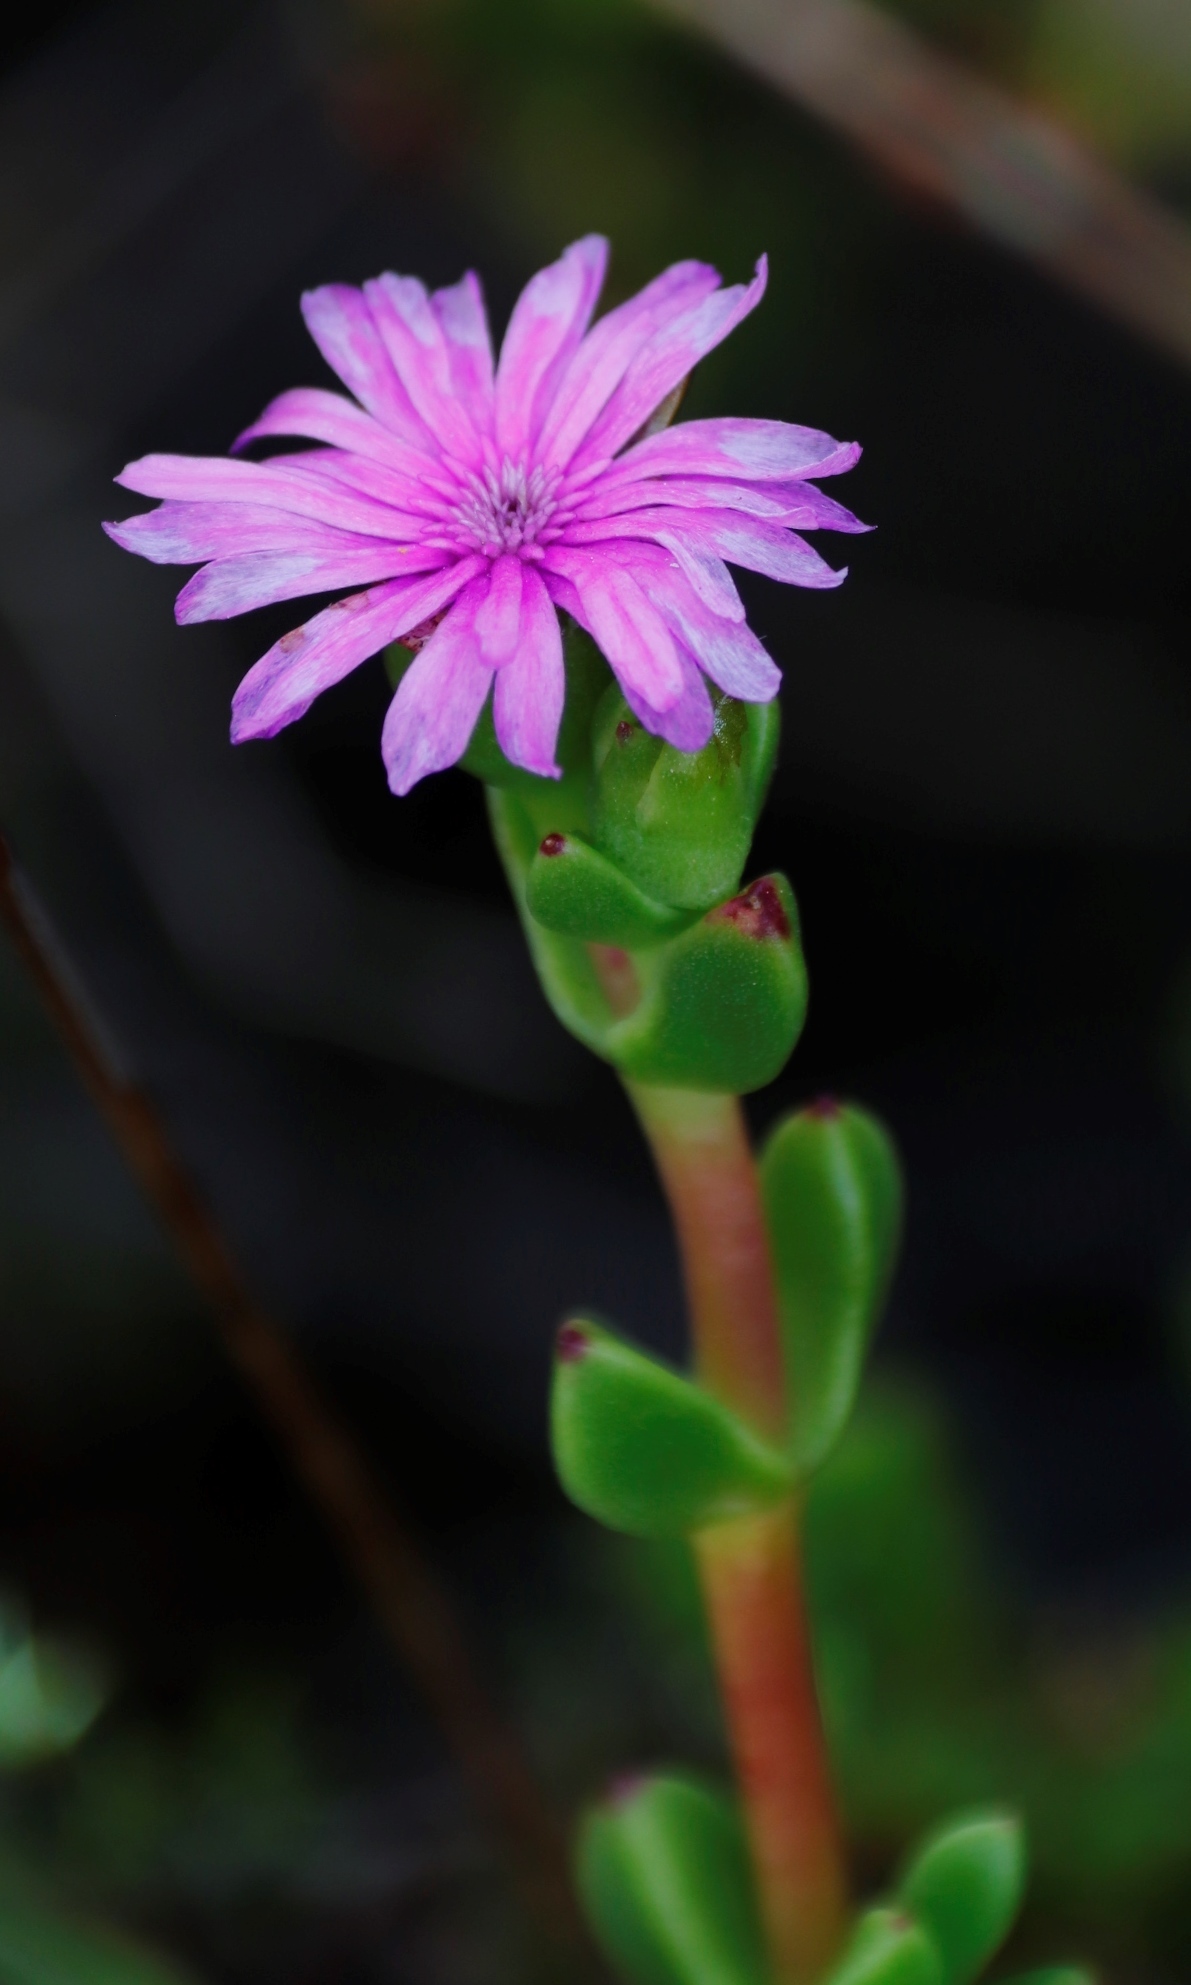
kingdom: Plantae
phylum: Tracheophyta
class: Magnoliopsida
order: Caryophyllales
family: Aizoaceae
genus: Erepsia
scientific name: Erepsia inclaudens
